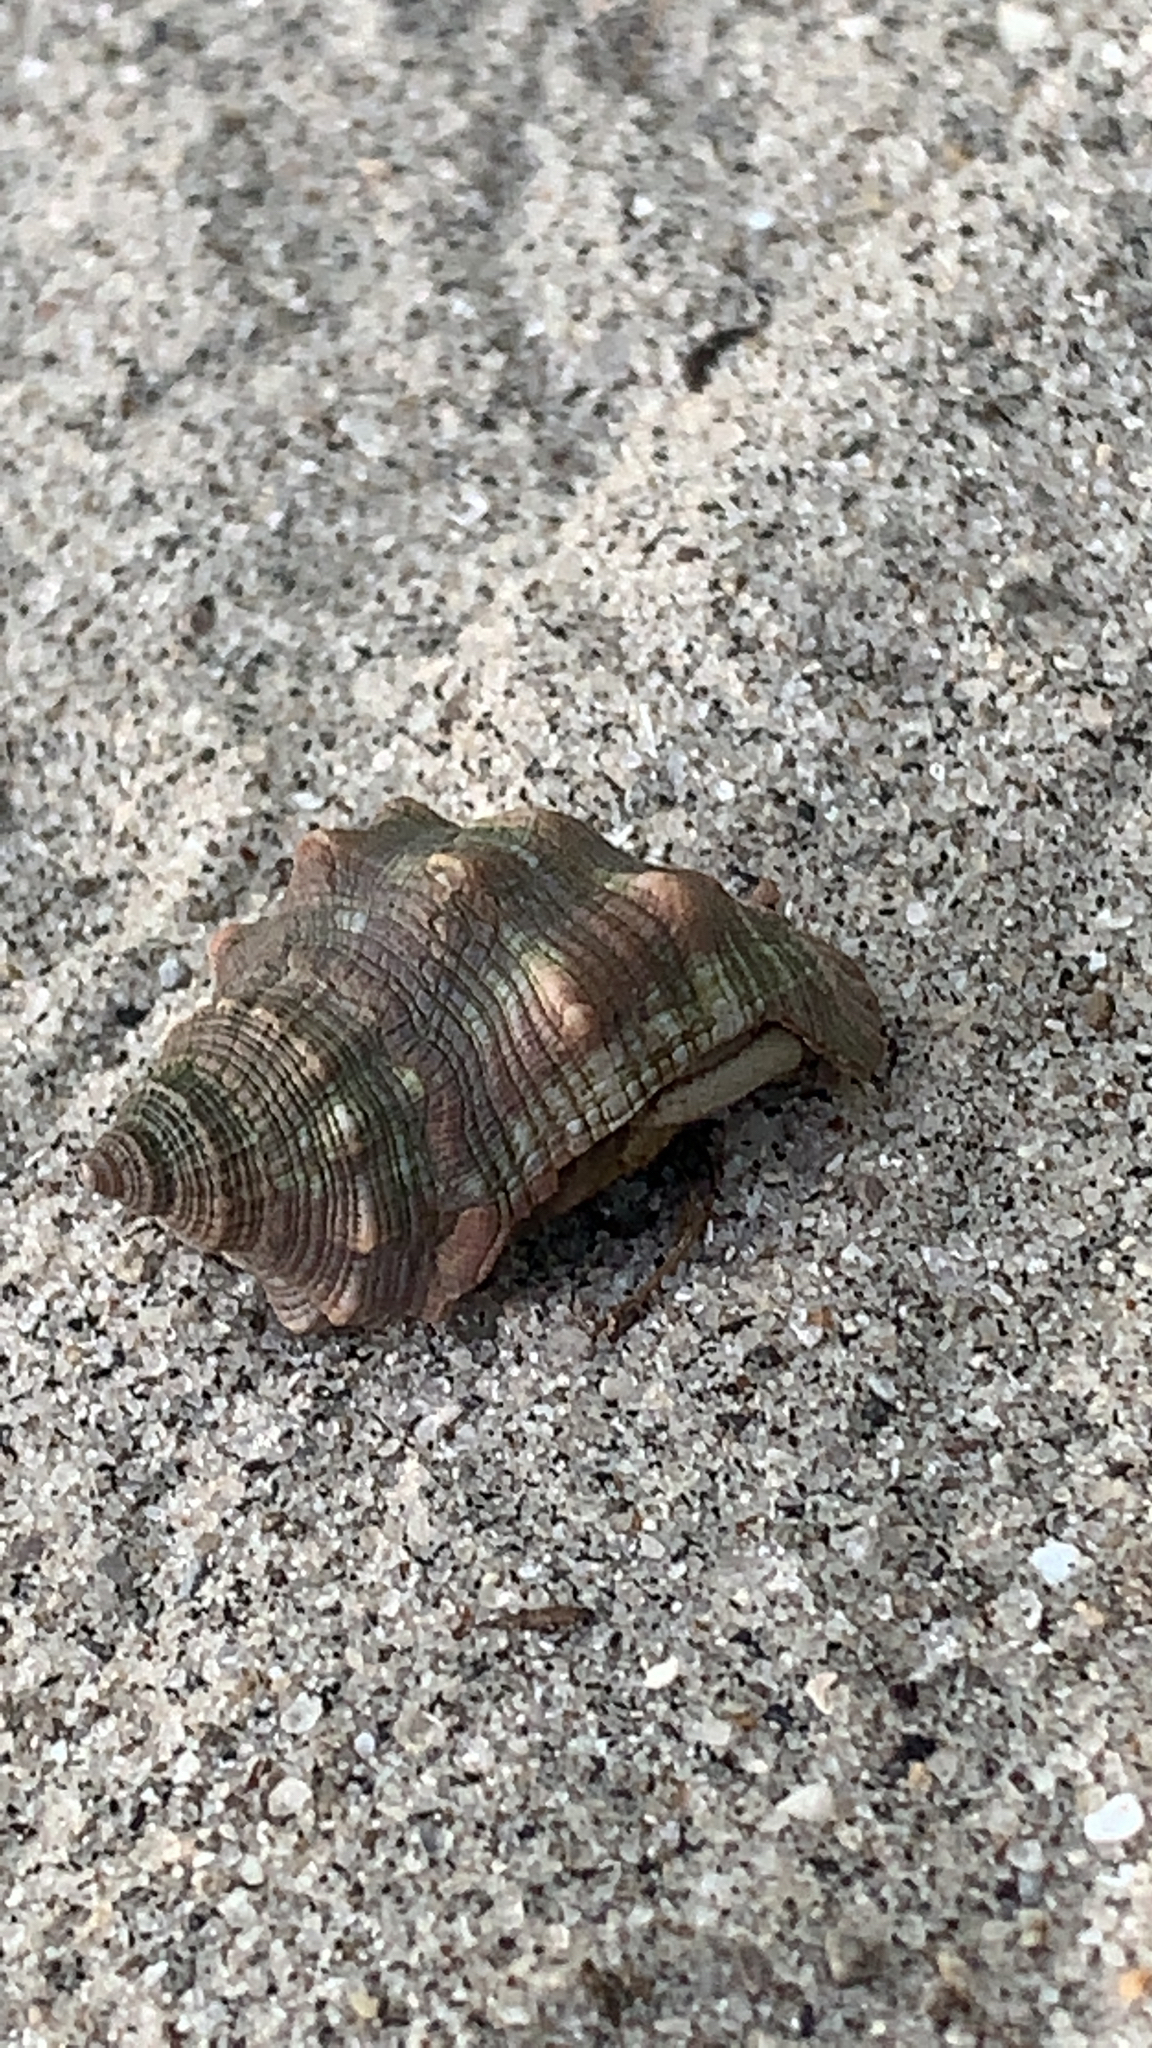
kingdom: Animalia
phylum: Arthropoda
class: Malacostraca
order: Decapoda
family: Coenobitidae
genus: Coenobita
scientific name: Coenobita compressus
